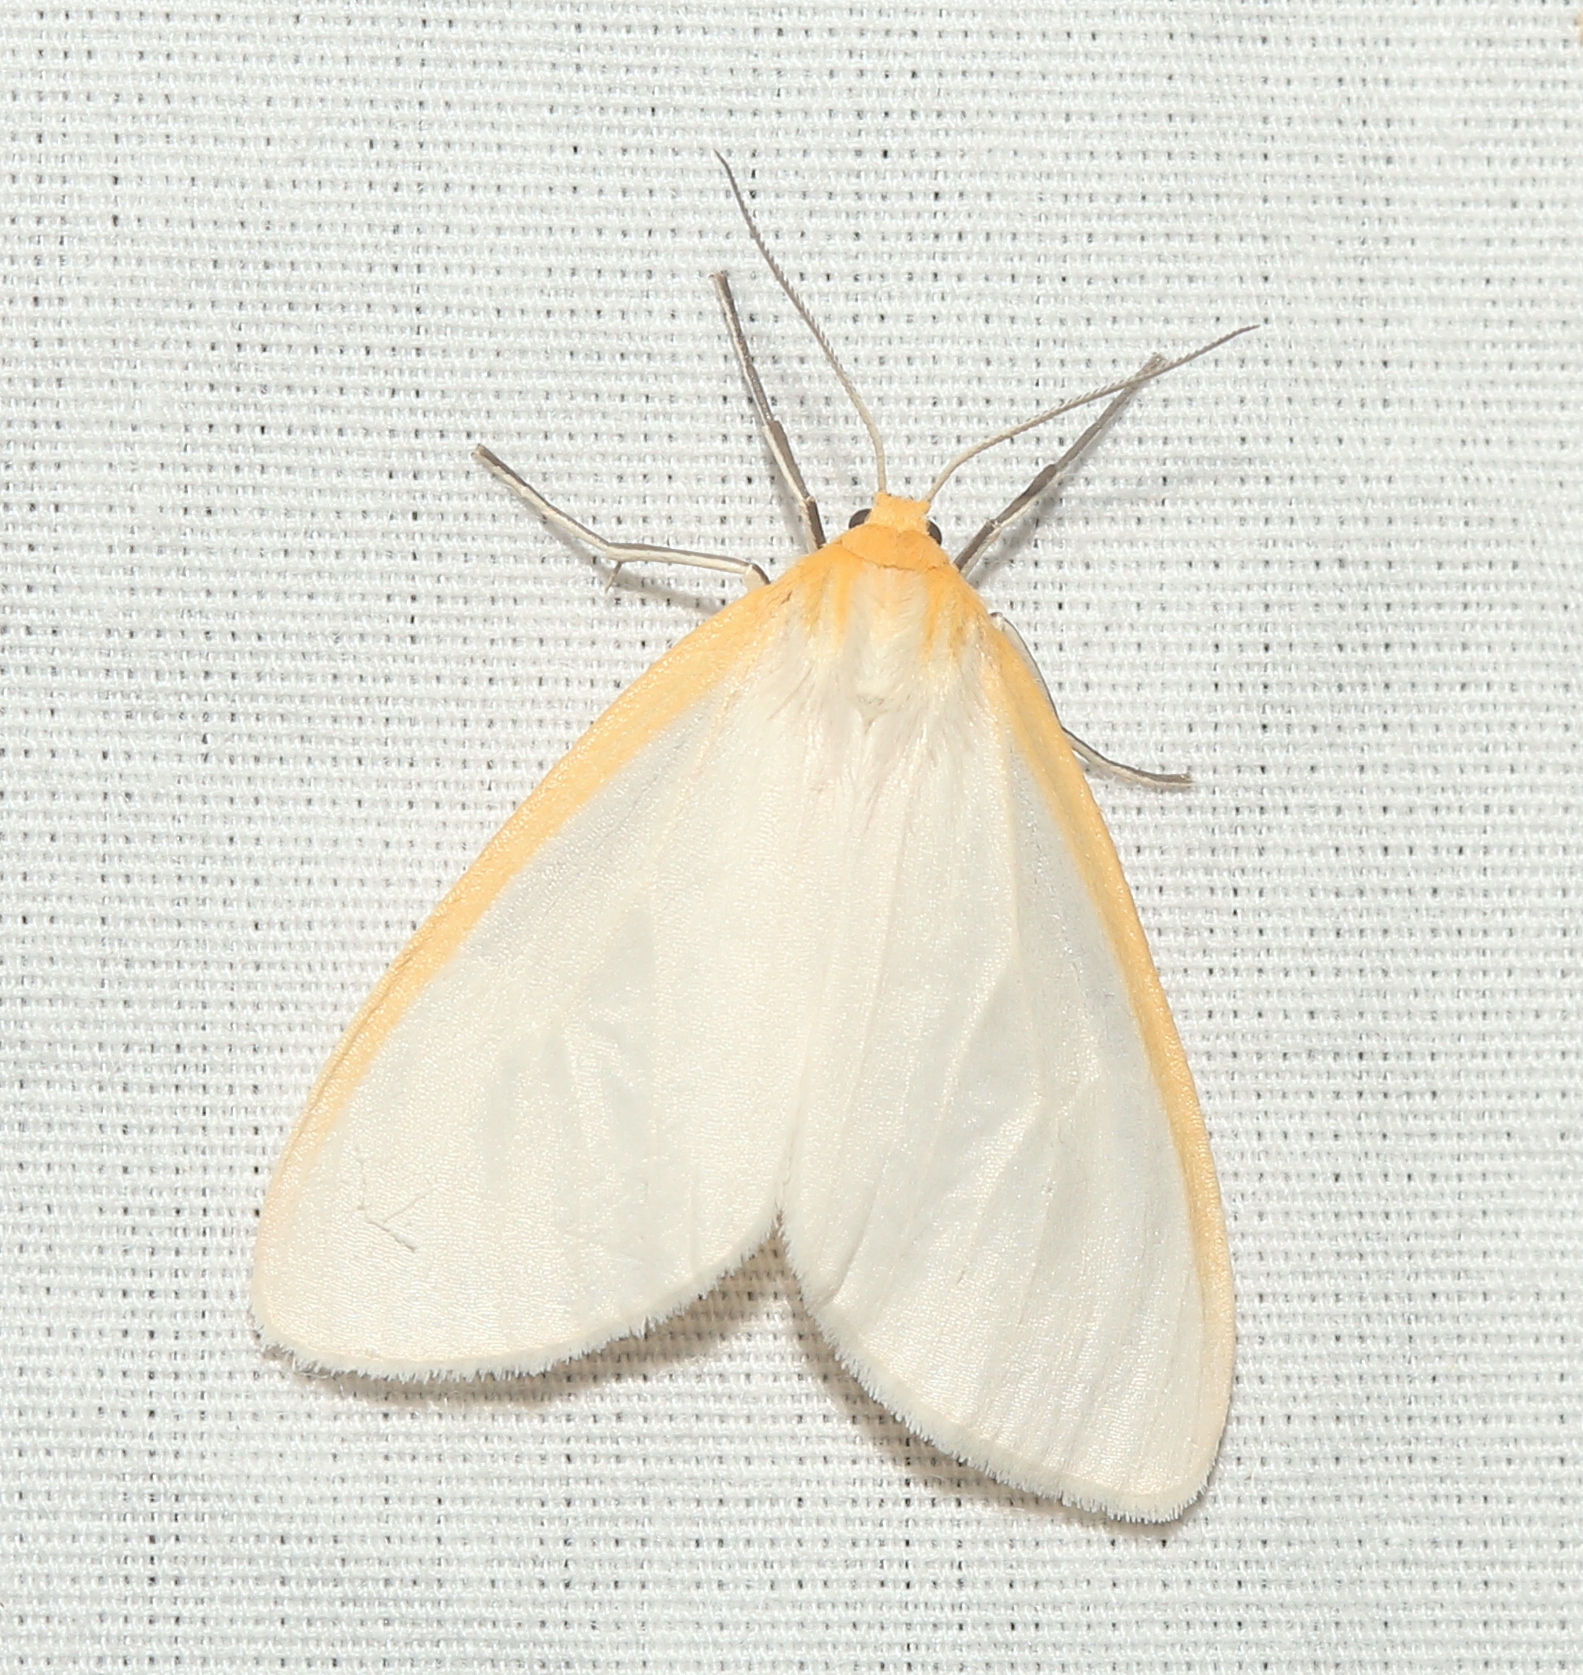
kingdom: Animalia
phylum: Arthropoda
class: Insecta
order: Lepidoptera
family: Erebidae
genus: Cycnia
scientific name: Cycnia tenera
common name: Delicate cycnia moth
